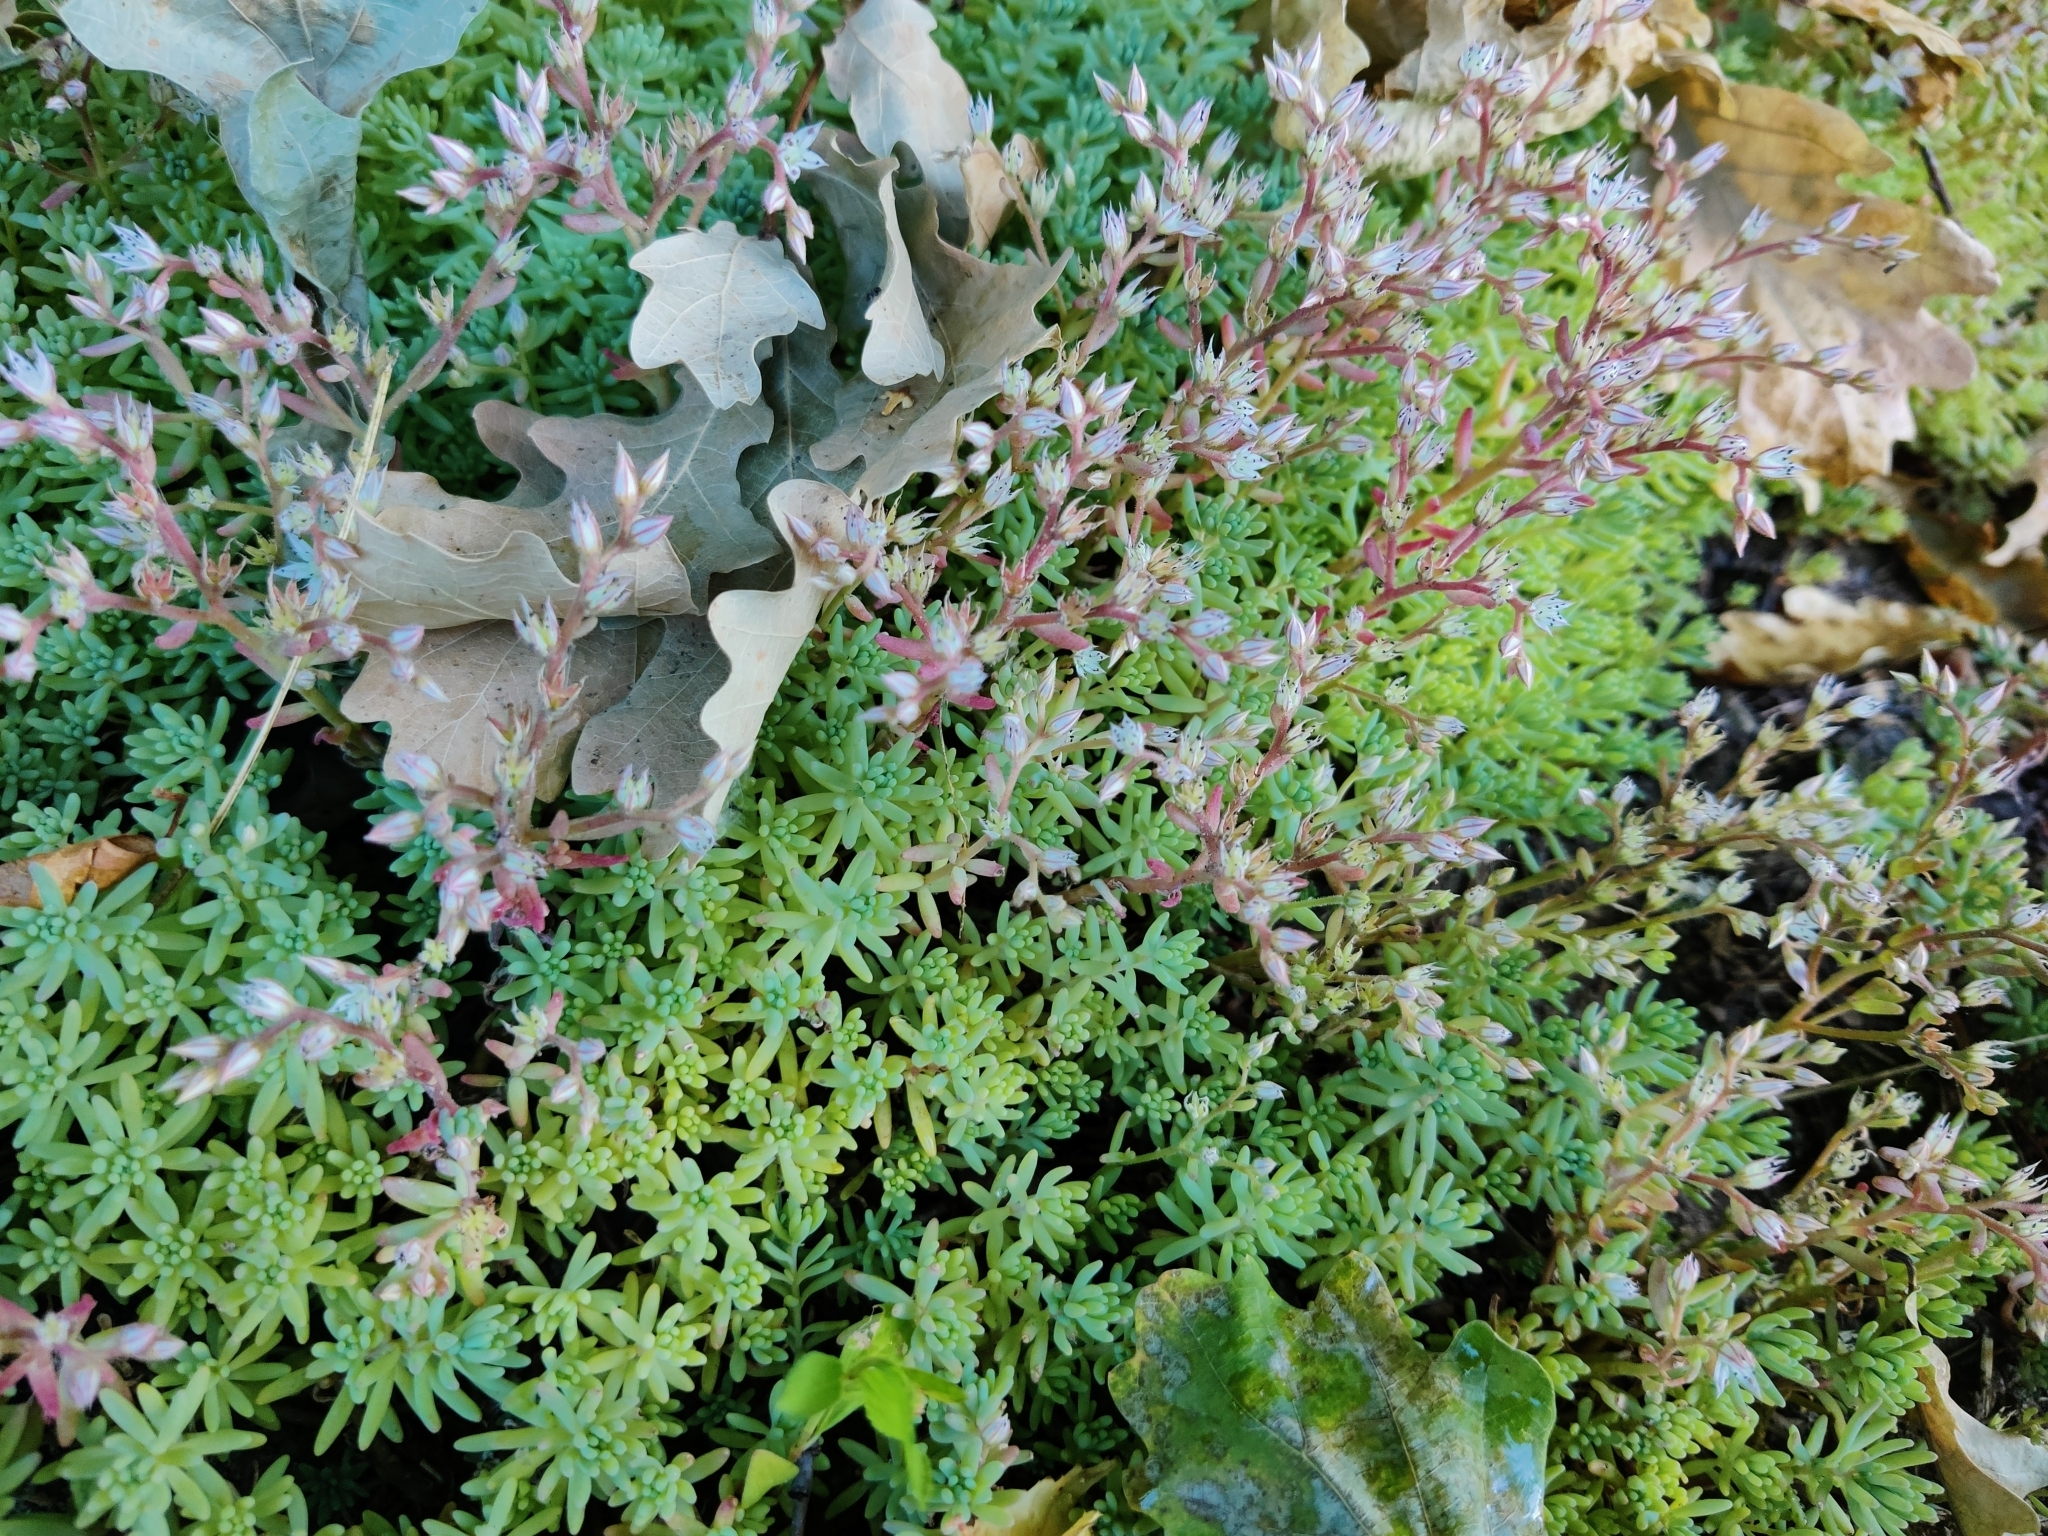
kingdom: Plantae
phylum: Tracheophyta
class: Magnoliopsida
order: Saxifragales
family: Crassulaceae
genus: Sedum
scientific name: Sedum pallidum
